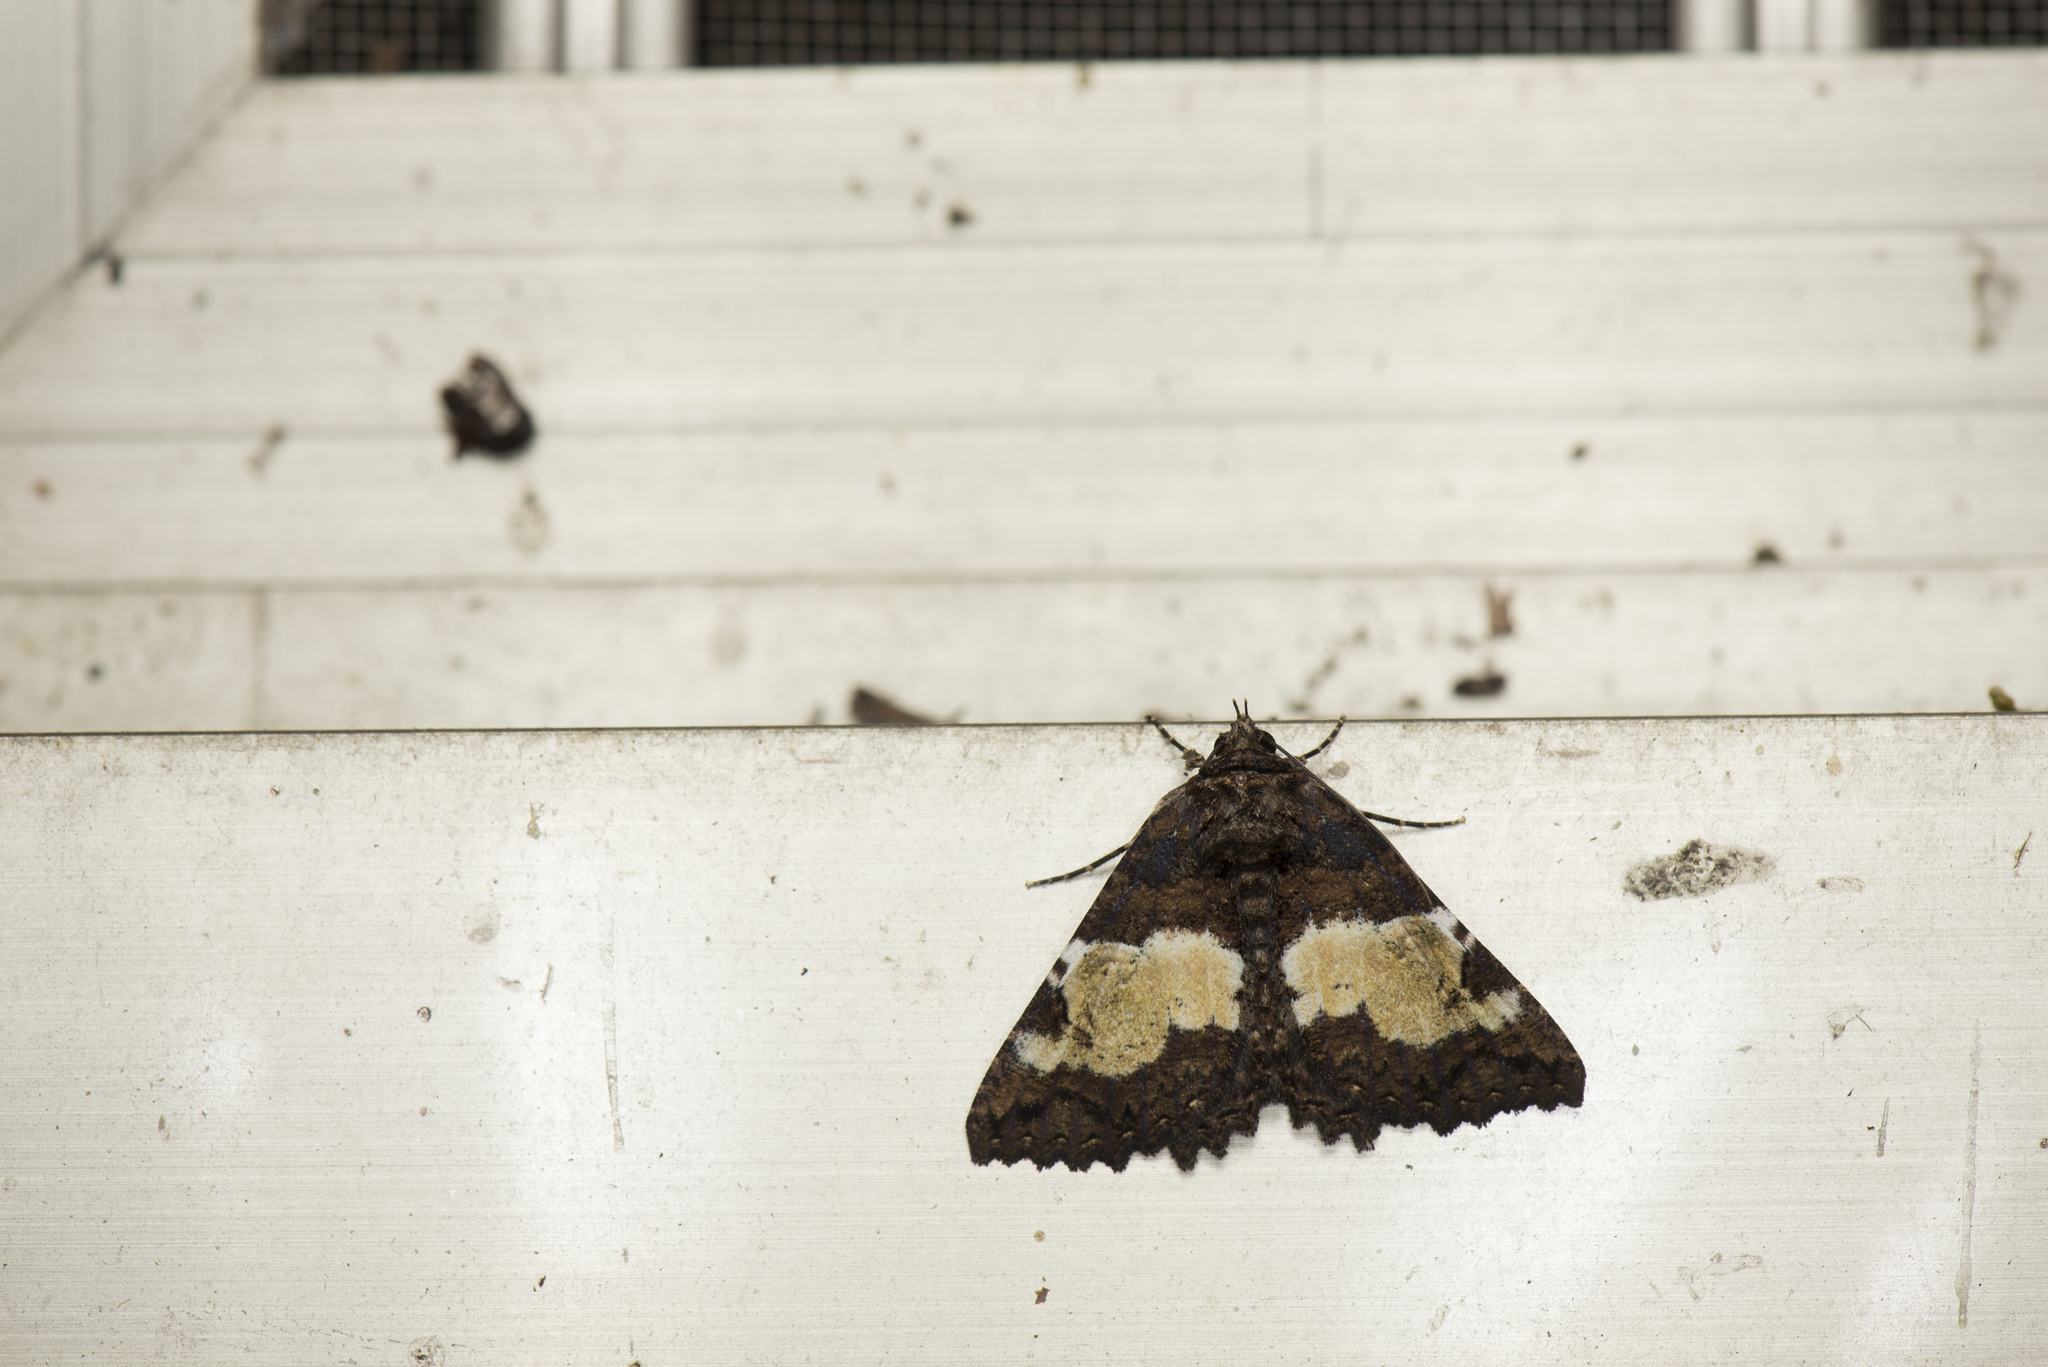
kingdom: Animalia
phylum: Arthropoda
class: Insecta
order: Lepidoptera
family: Erebidae
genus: Daddala
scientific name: Daddala lucilla
